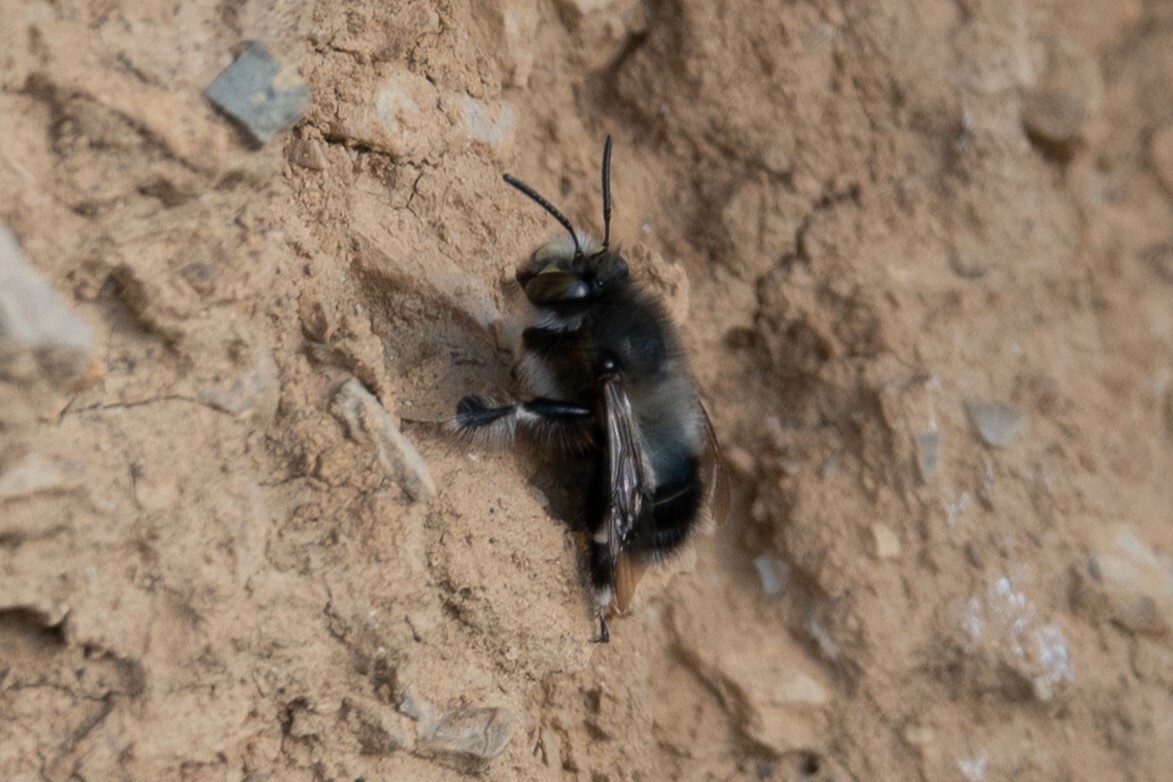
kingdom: Animalia
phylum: Arthropoda
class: Insecta
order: Hymenoptera
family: Apidae
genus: Anthophora
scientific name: Anthophora dispar
